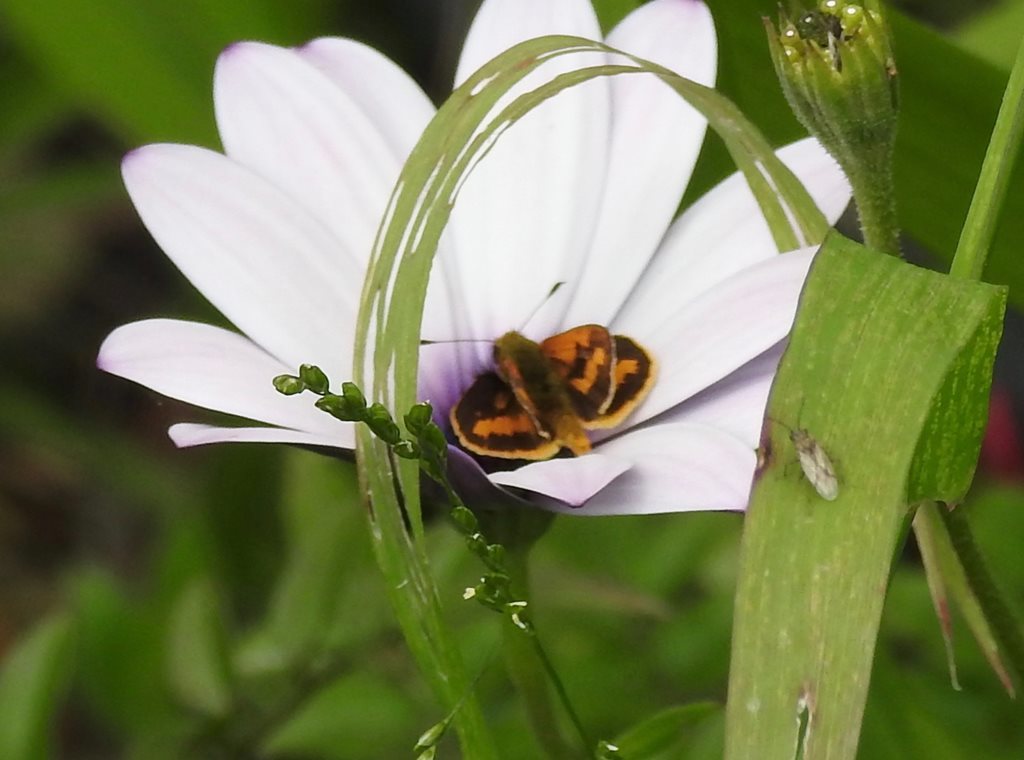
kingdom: Animalia
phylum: Arthropoda
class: Insecta
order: Lepidoptera
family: Hesperiidae
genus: Ocybadistes
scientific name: Ocybadistes walkeri
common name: Yellow-banded dart
